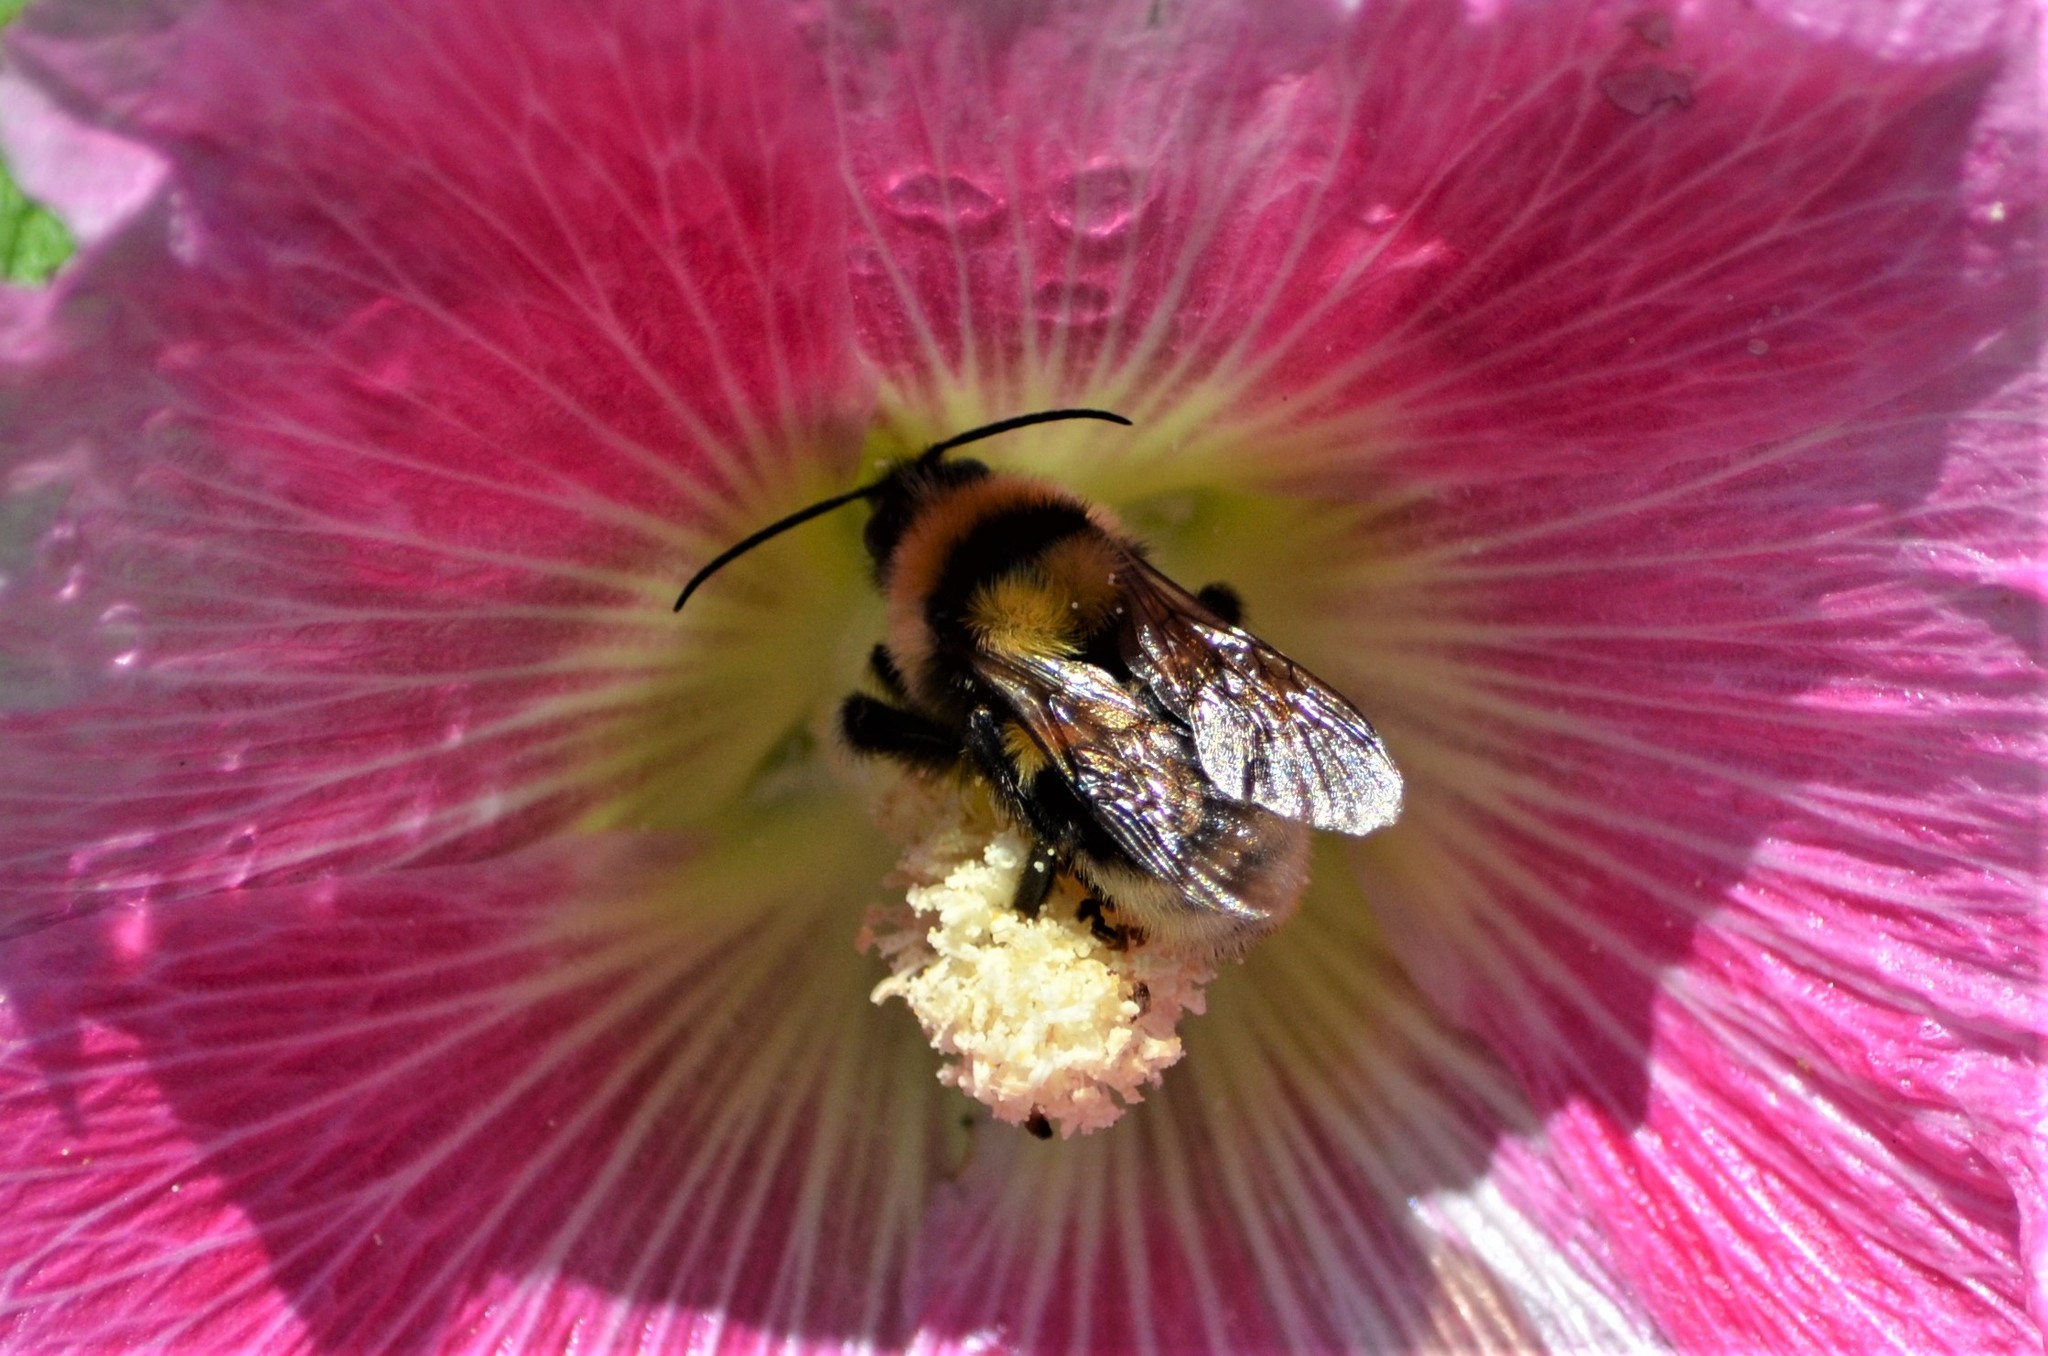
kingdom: Animalia
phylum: Arthropoda
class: Insecta
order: Hymenoptera
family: Apidae
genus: Bombus
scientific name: Bombus ruderatus
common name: Large garden bumblebee
